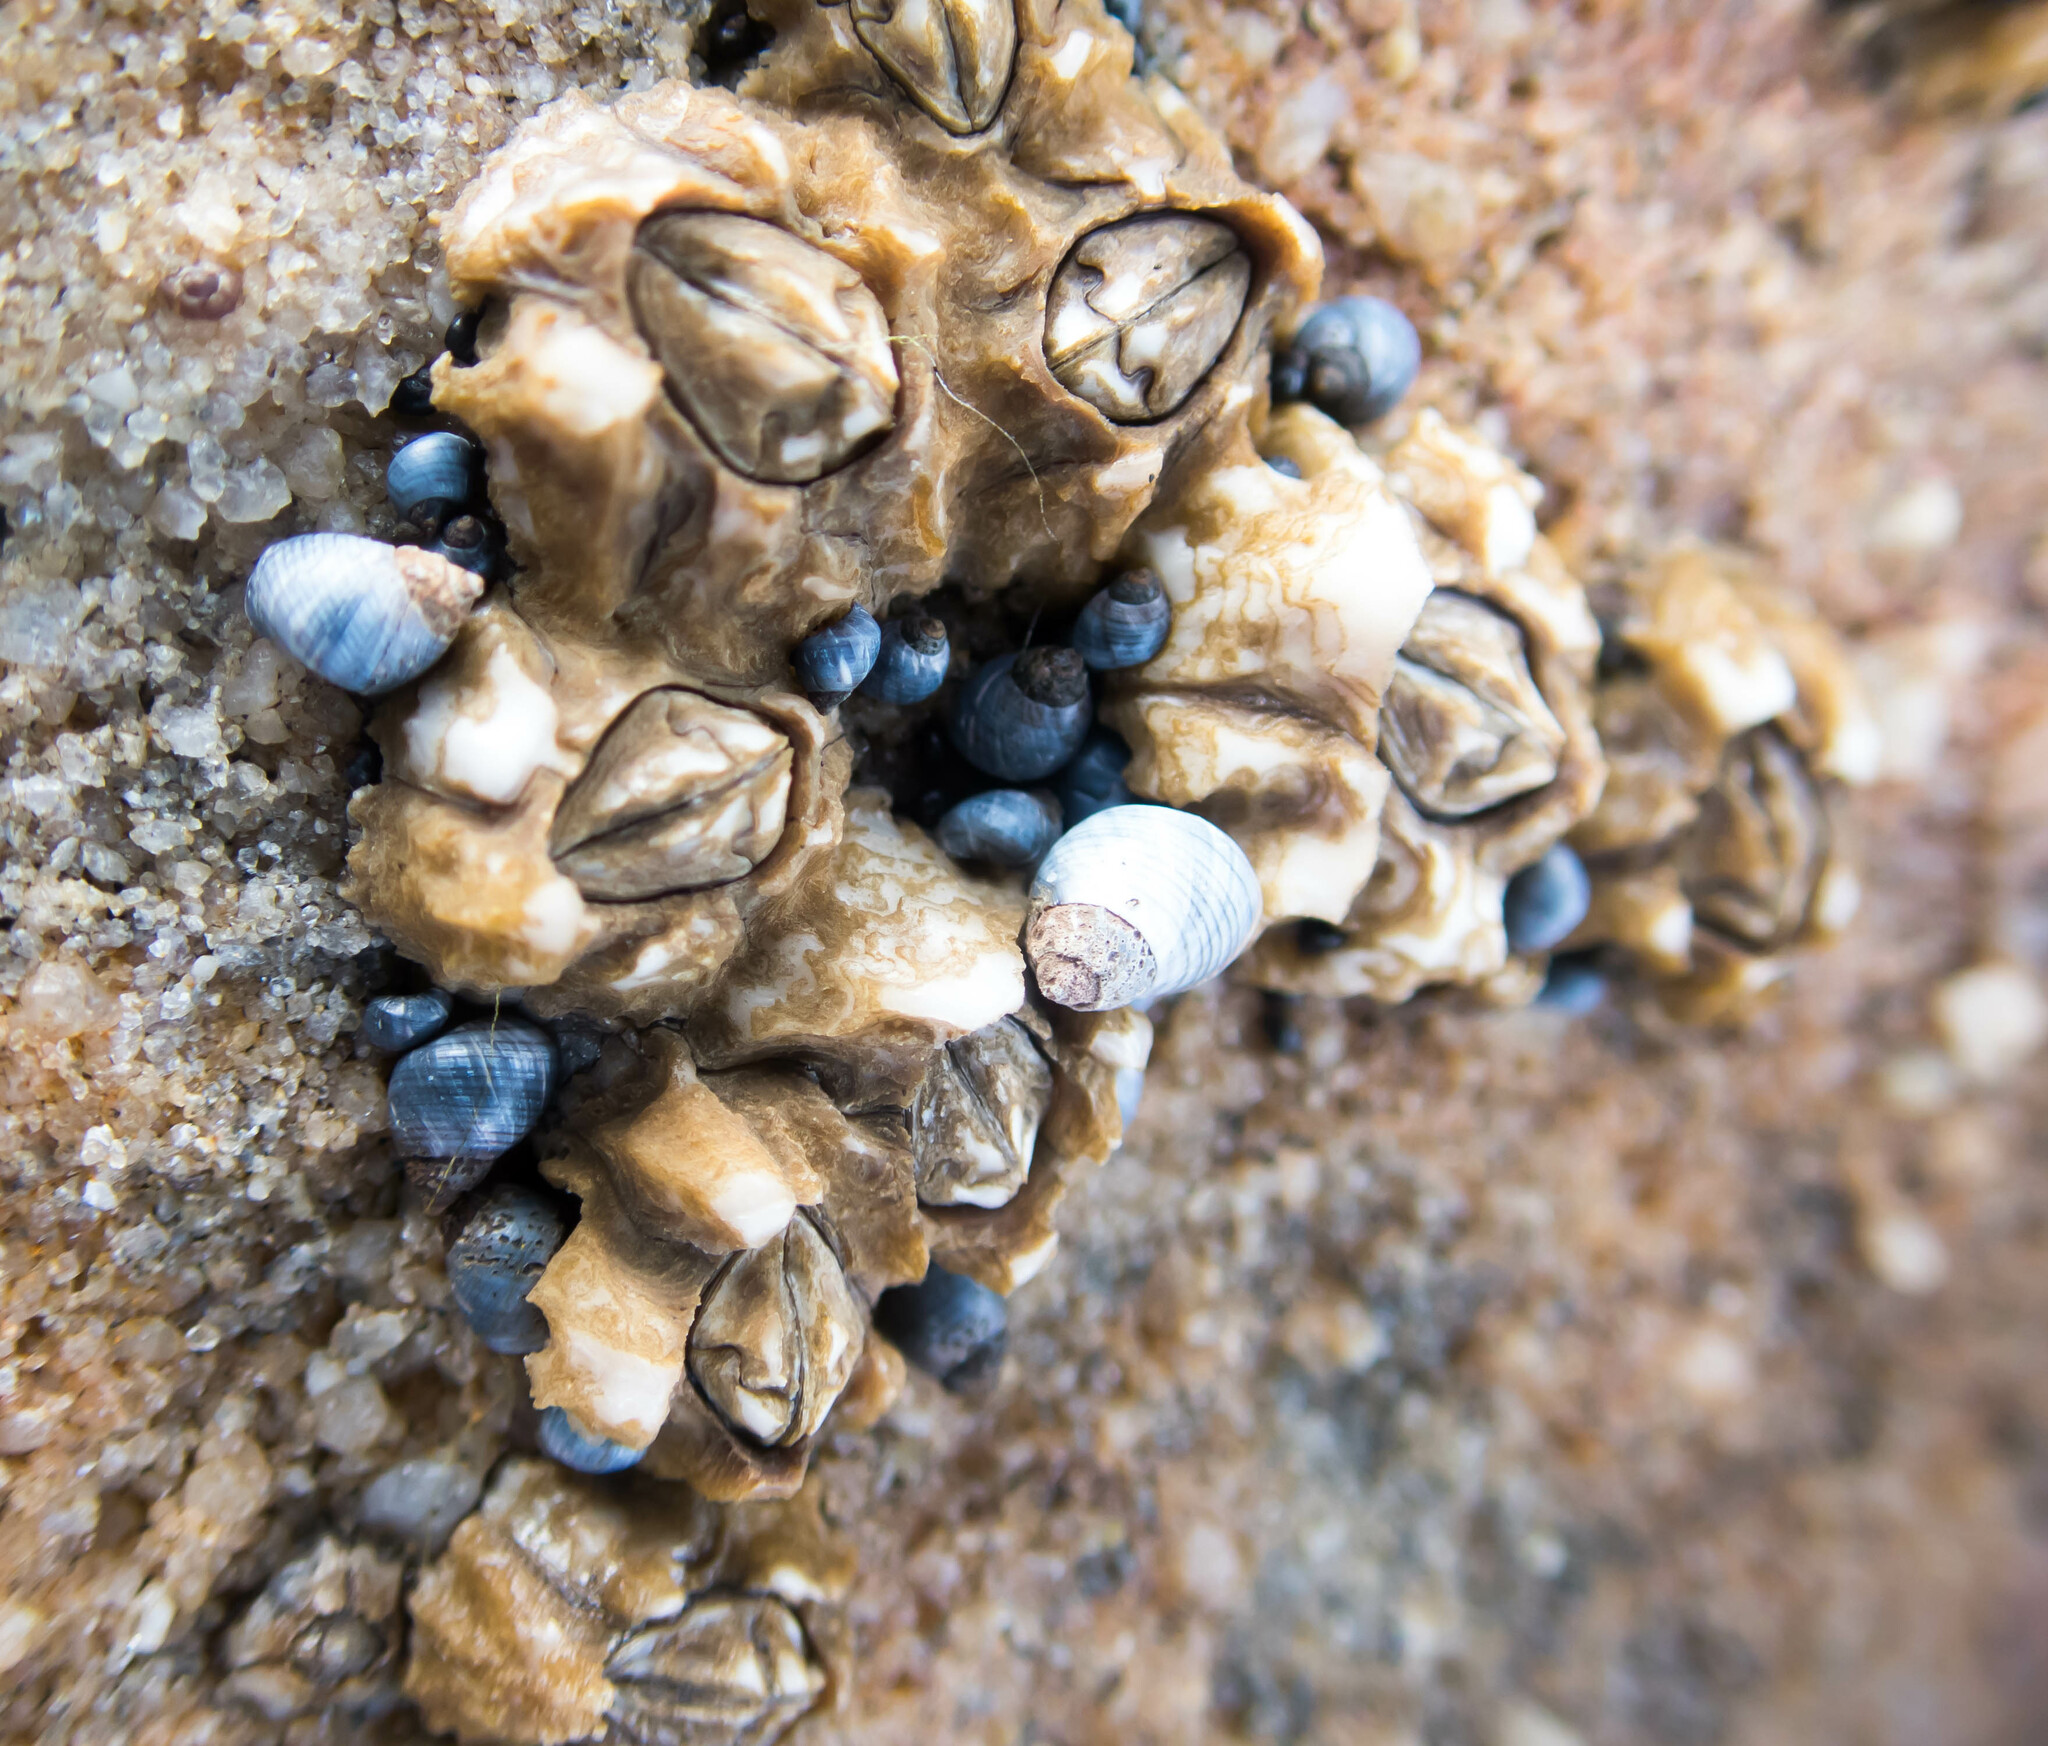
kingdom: Animalia
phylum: Arthropoda
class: Maxillopoda
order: Sessilia
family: Chthamalidae
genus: Chthamalus
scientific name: Chthamalus antennatus
